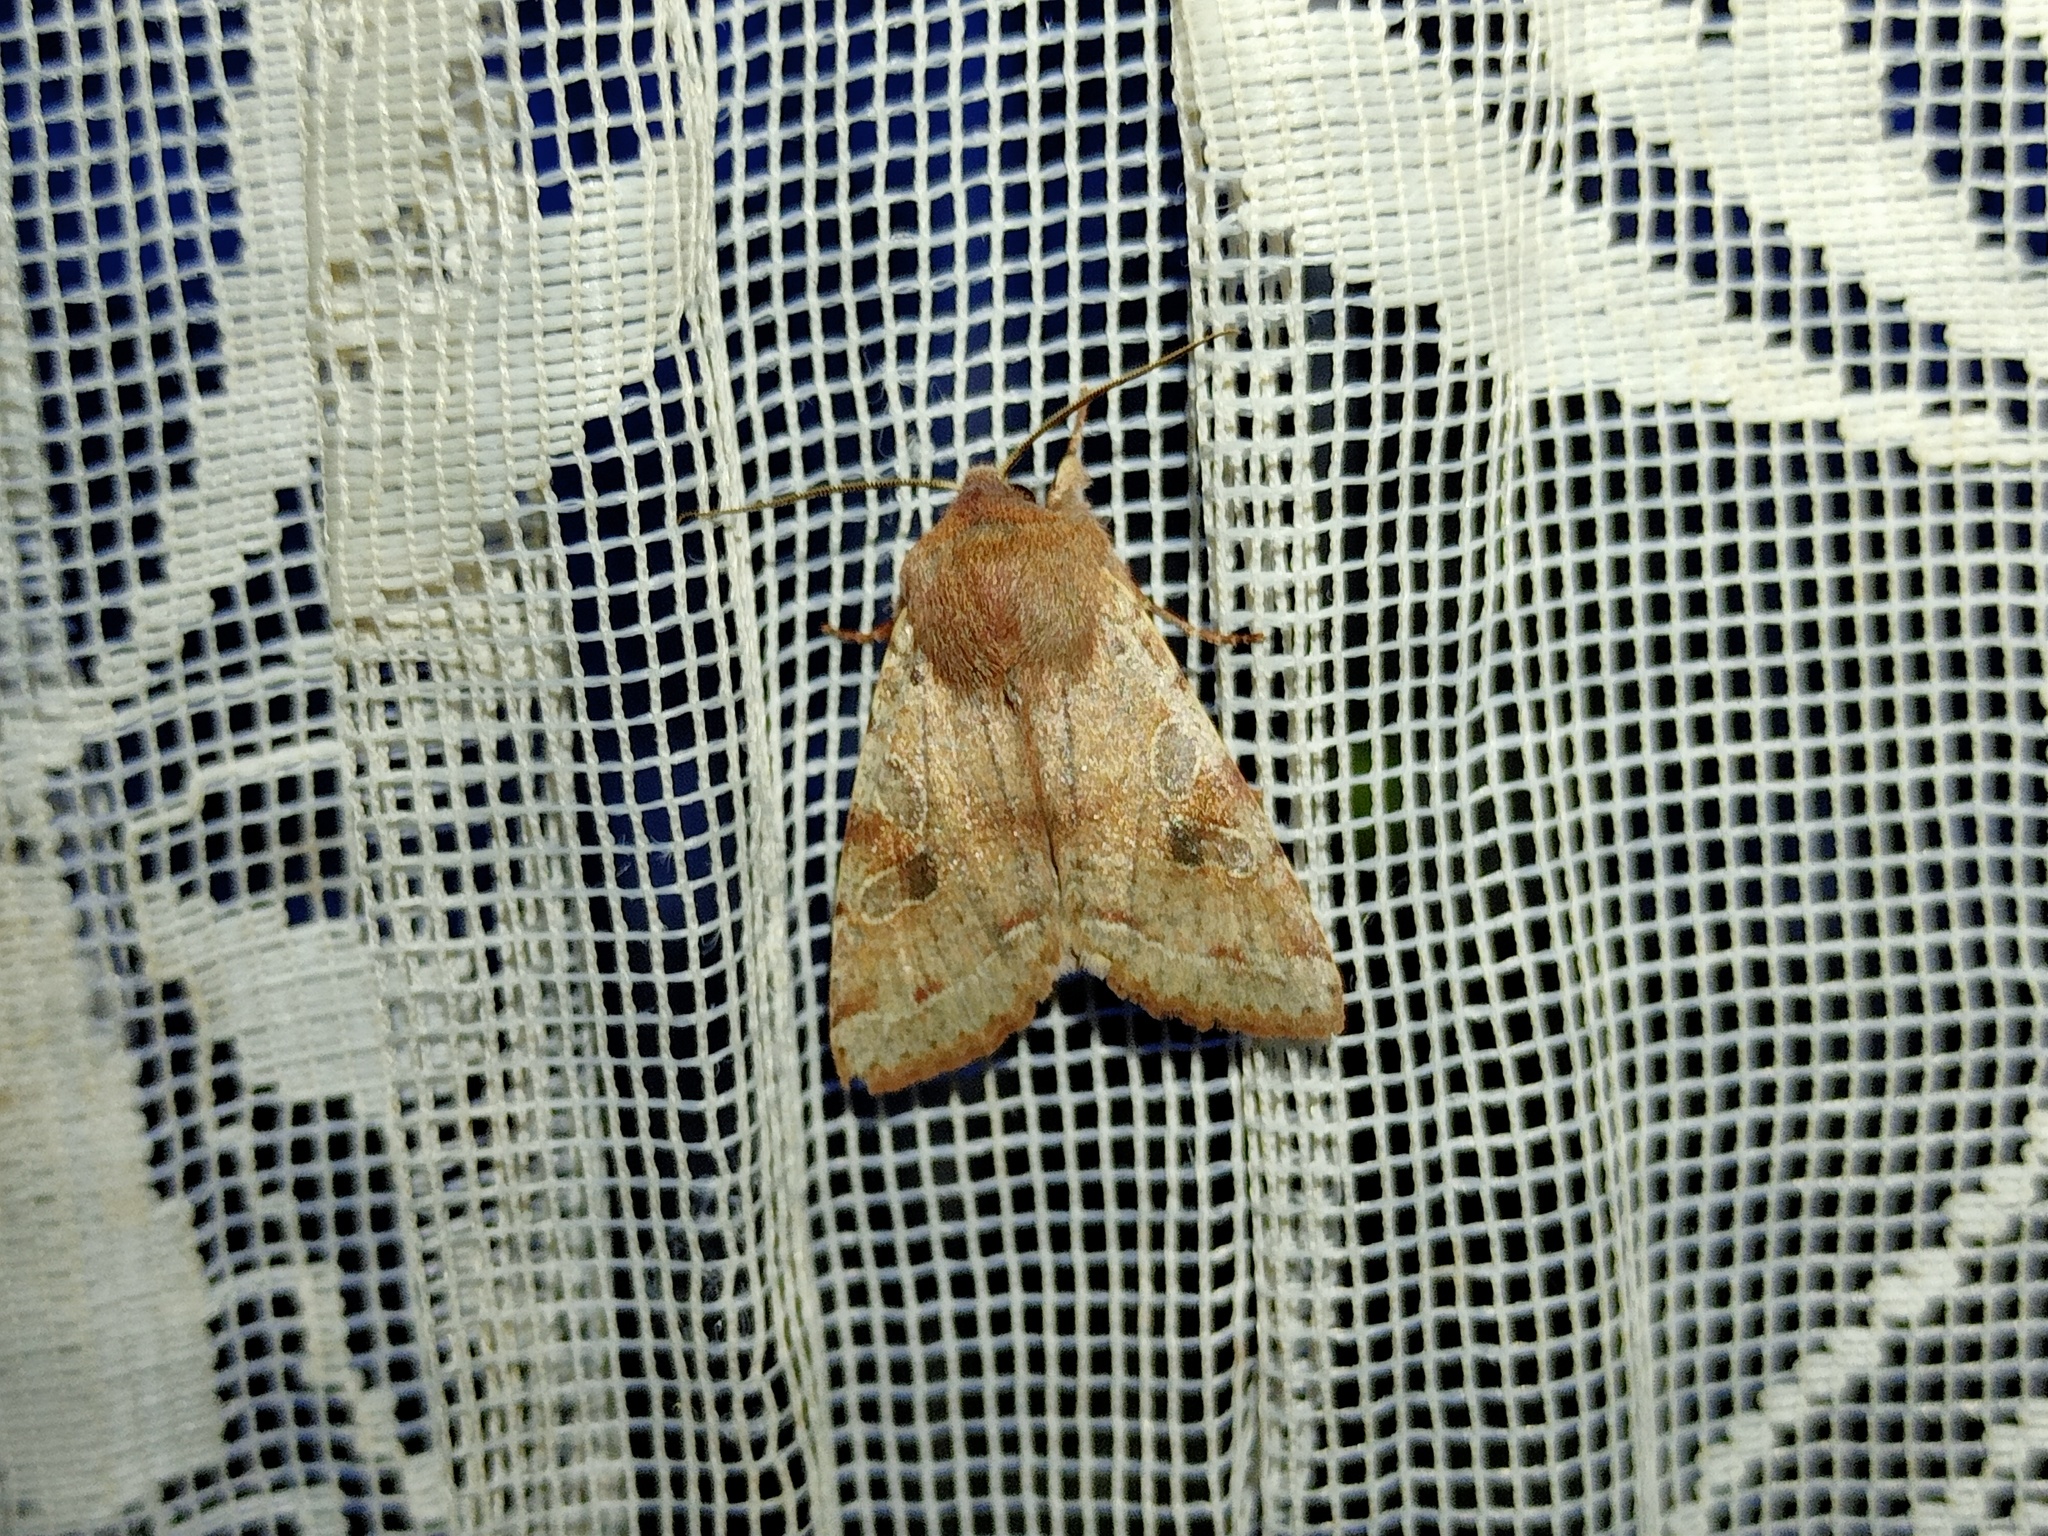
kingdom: Animalia
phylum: Arthropoda
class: Insecta
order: Lepidoptera
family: Noctuidae
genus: Orthosia
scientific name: Orthosia incerta
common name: Clouded drab
